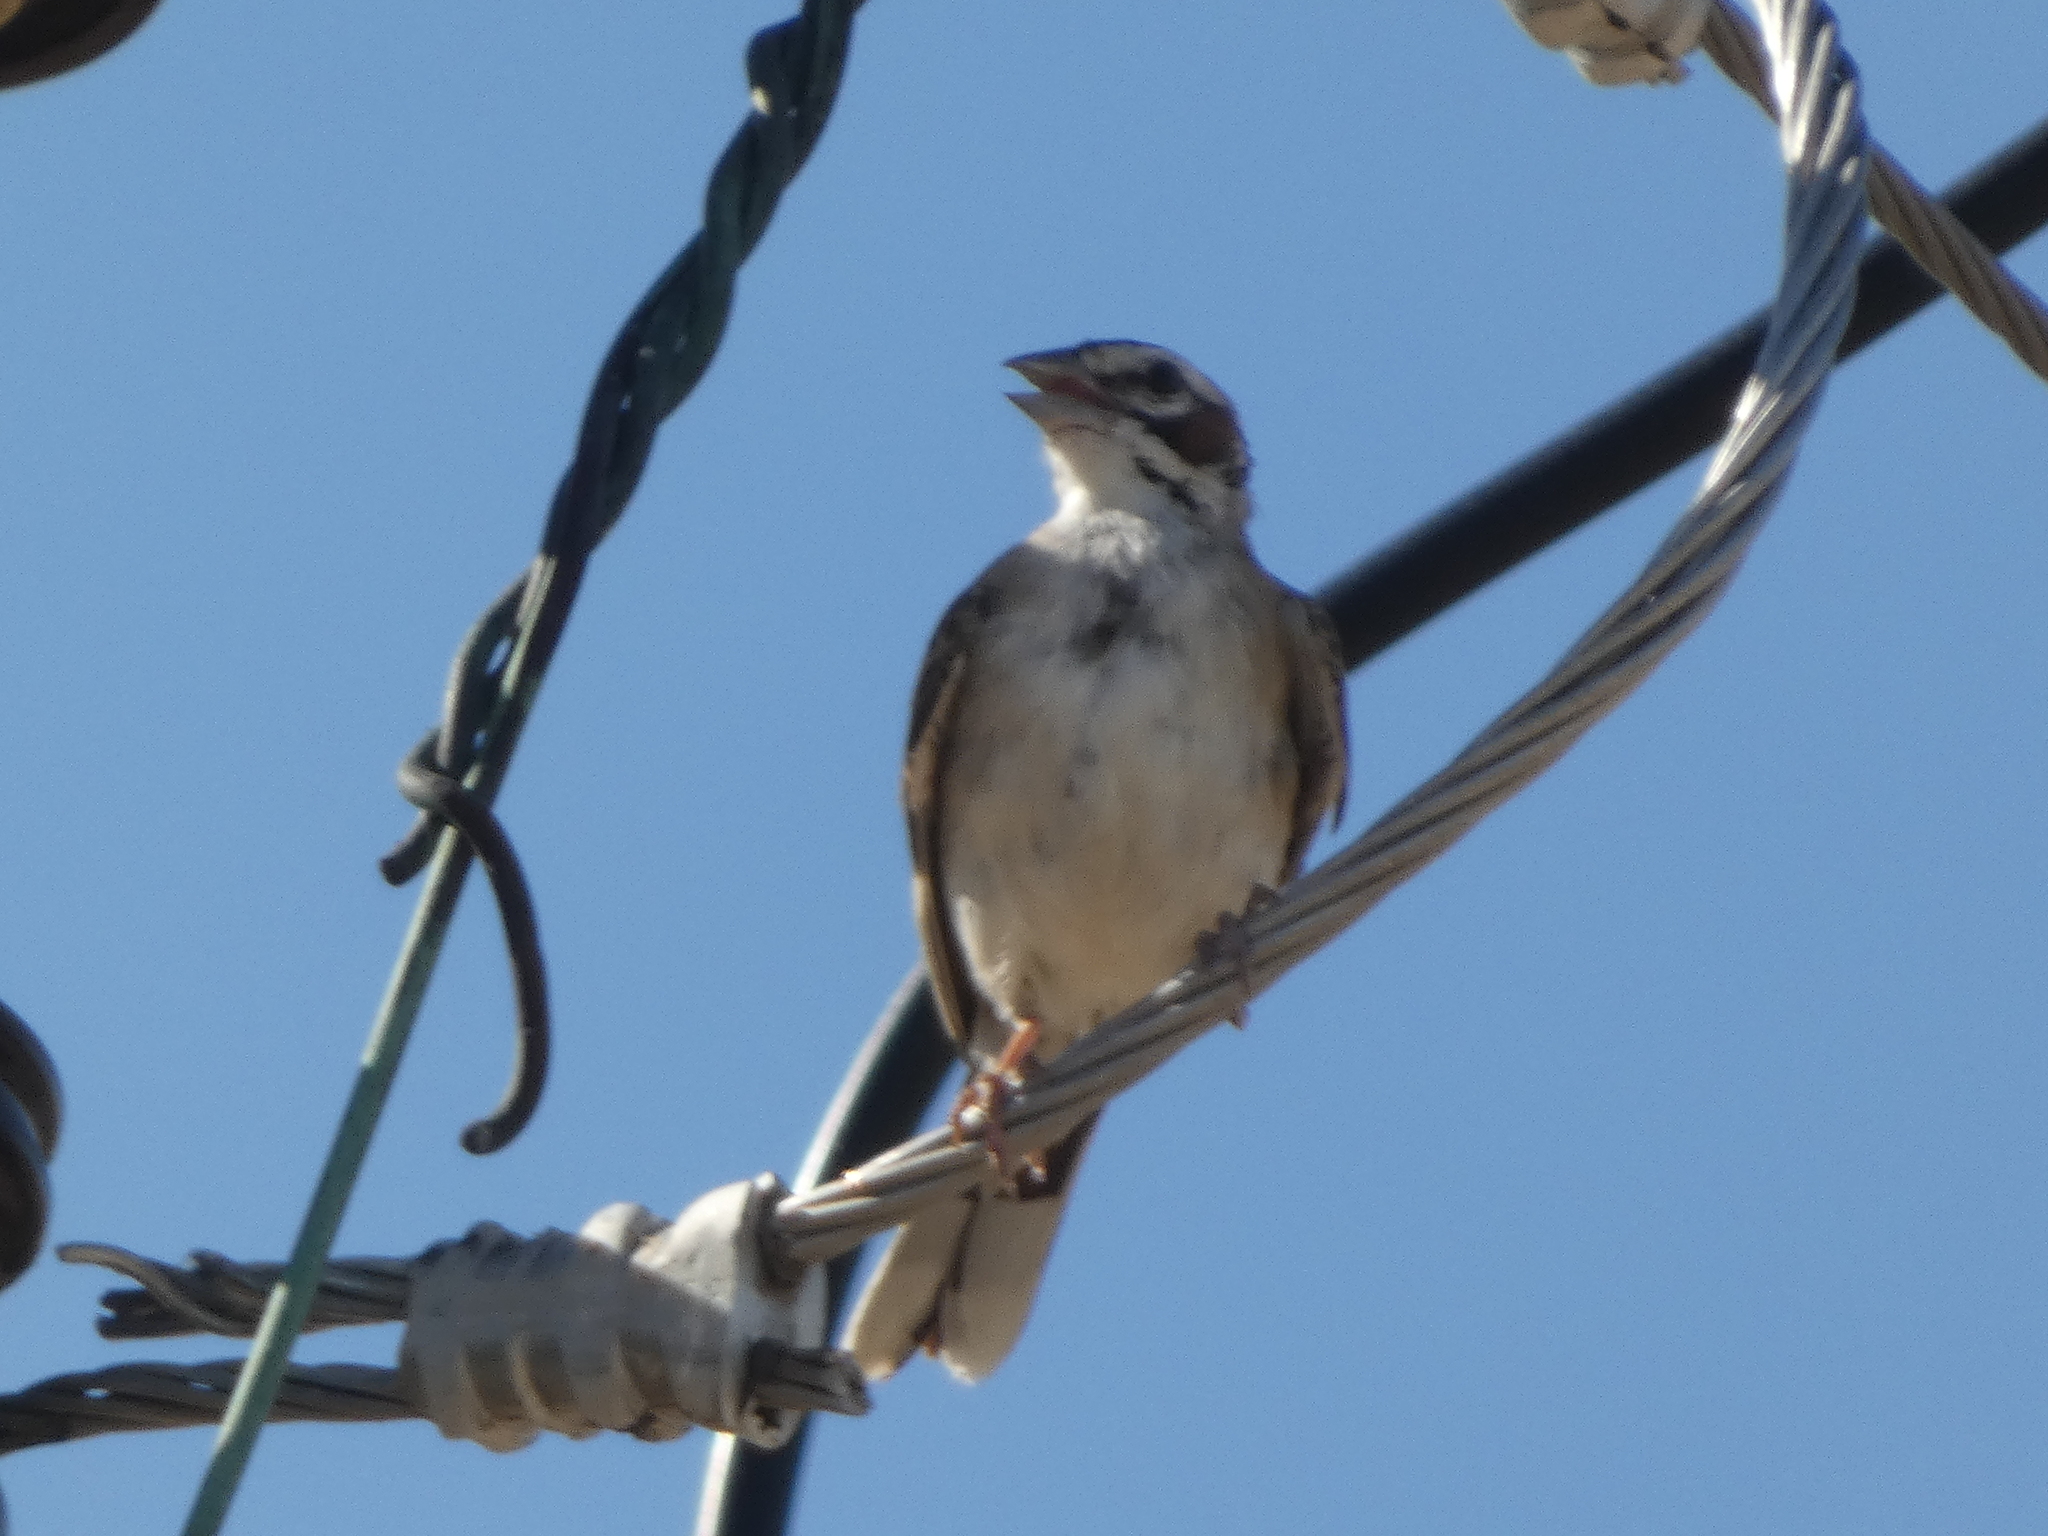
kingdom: Animalia
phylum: Chordata
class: Aves
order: Passeriformes
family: Passerellidae
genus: Chondestes
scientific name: Chondestes grammacus
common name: Lark sparrow
